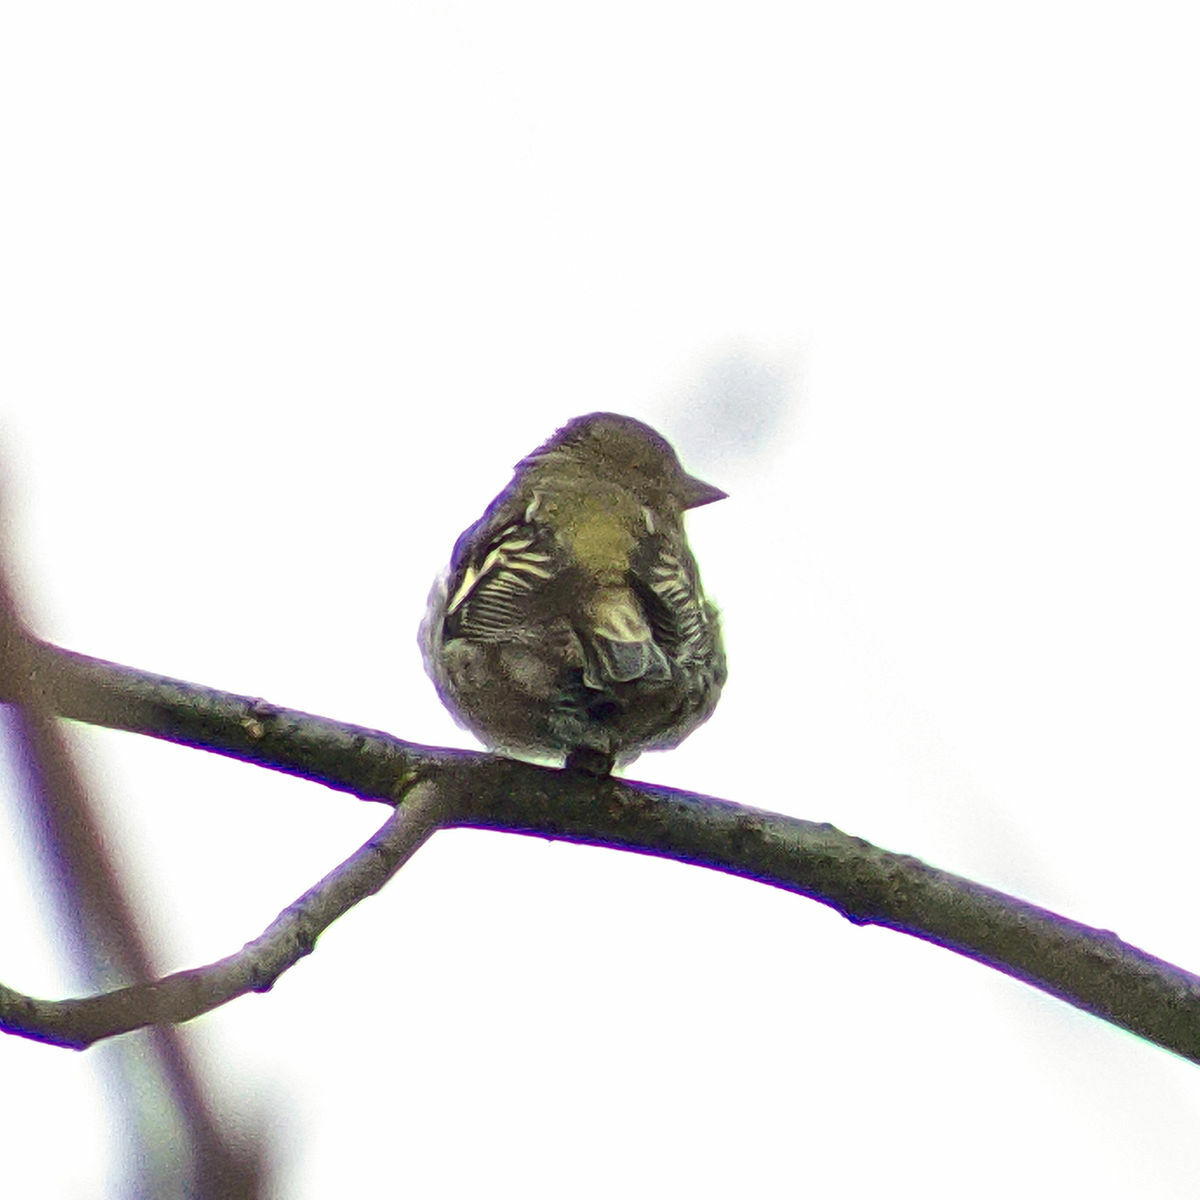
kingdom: Animalia
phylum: Chordata
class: Aves
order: Passeriformes
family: Fringillidae
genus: Fringilla
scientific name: Fringilla coelebs
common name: Common chaffinch
